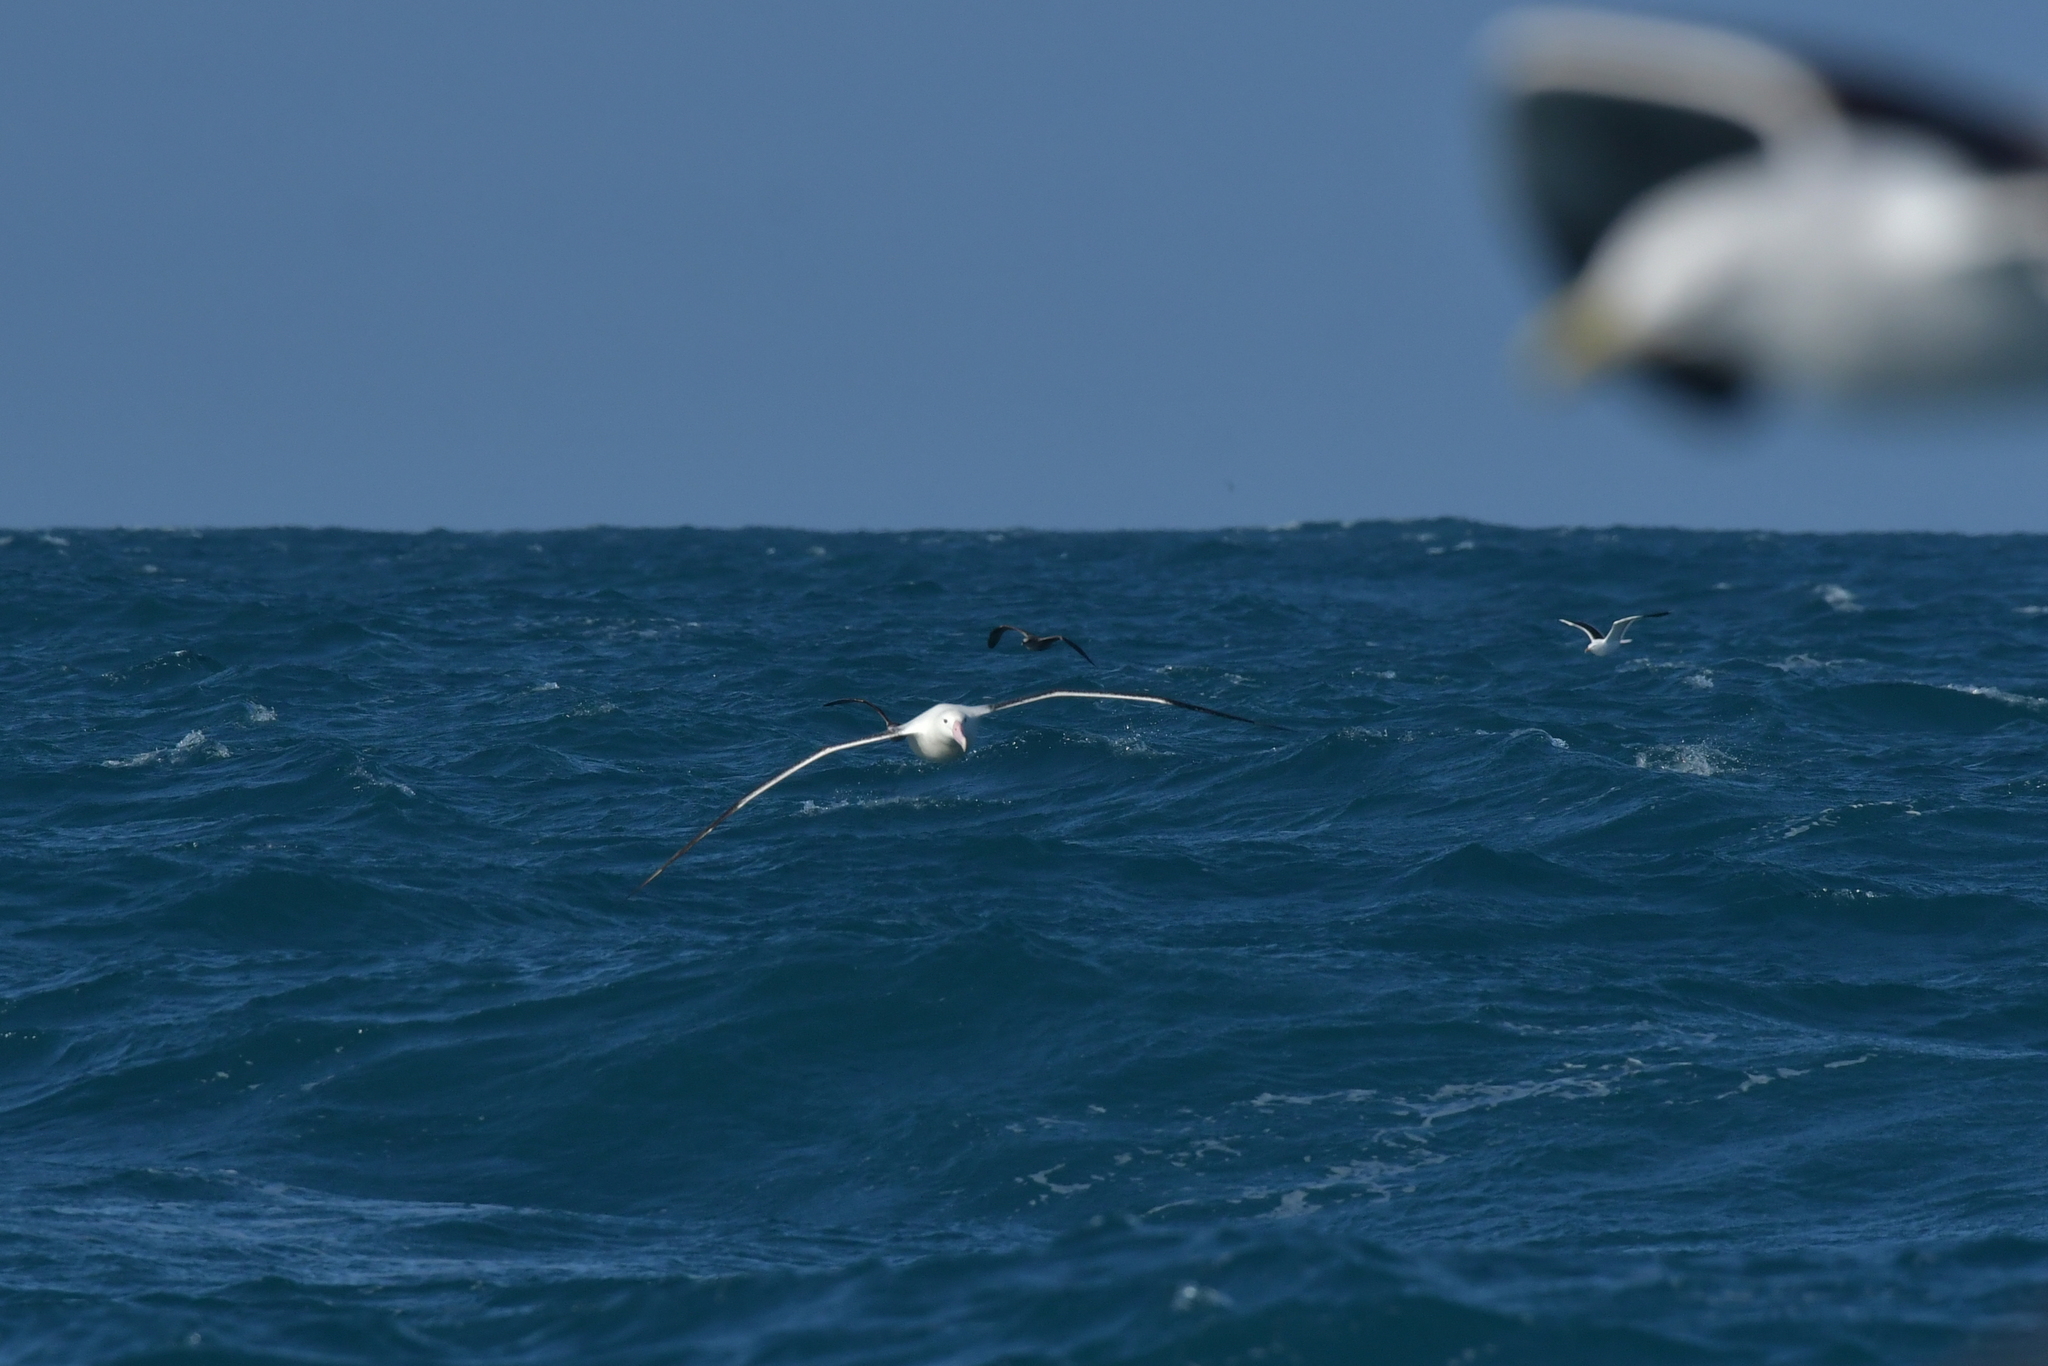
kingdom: Animalia
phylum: Chordata
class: Aves
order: Procellariiformes
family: Diomedeidae
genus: Diomedea
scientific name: Diomedea epomophora
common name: Southern royal albatross
